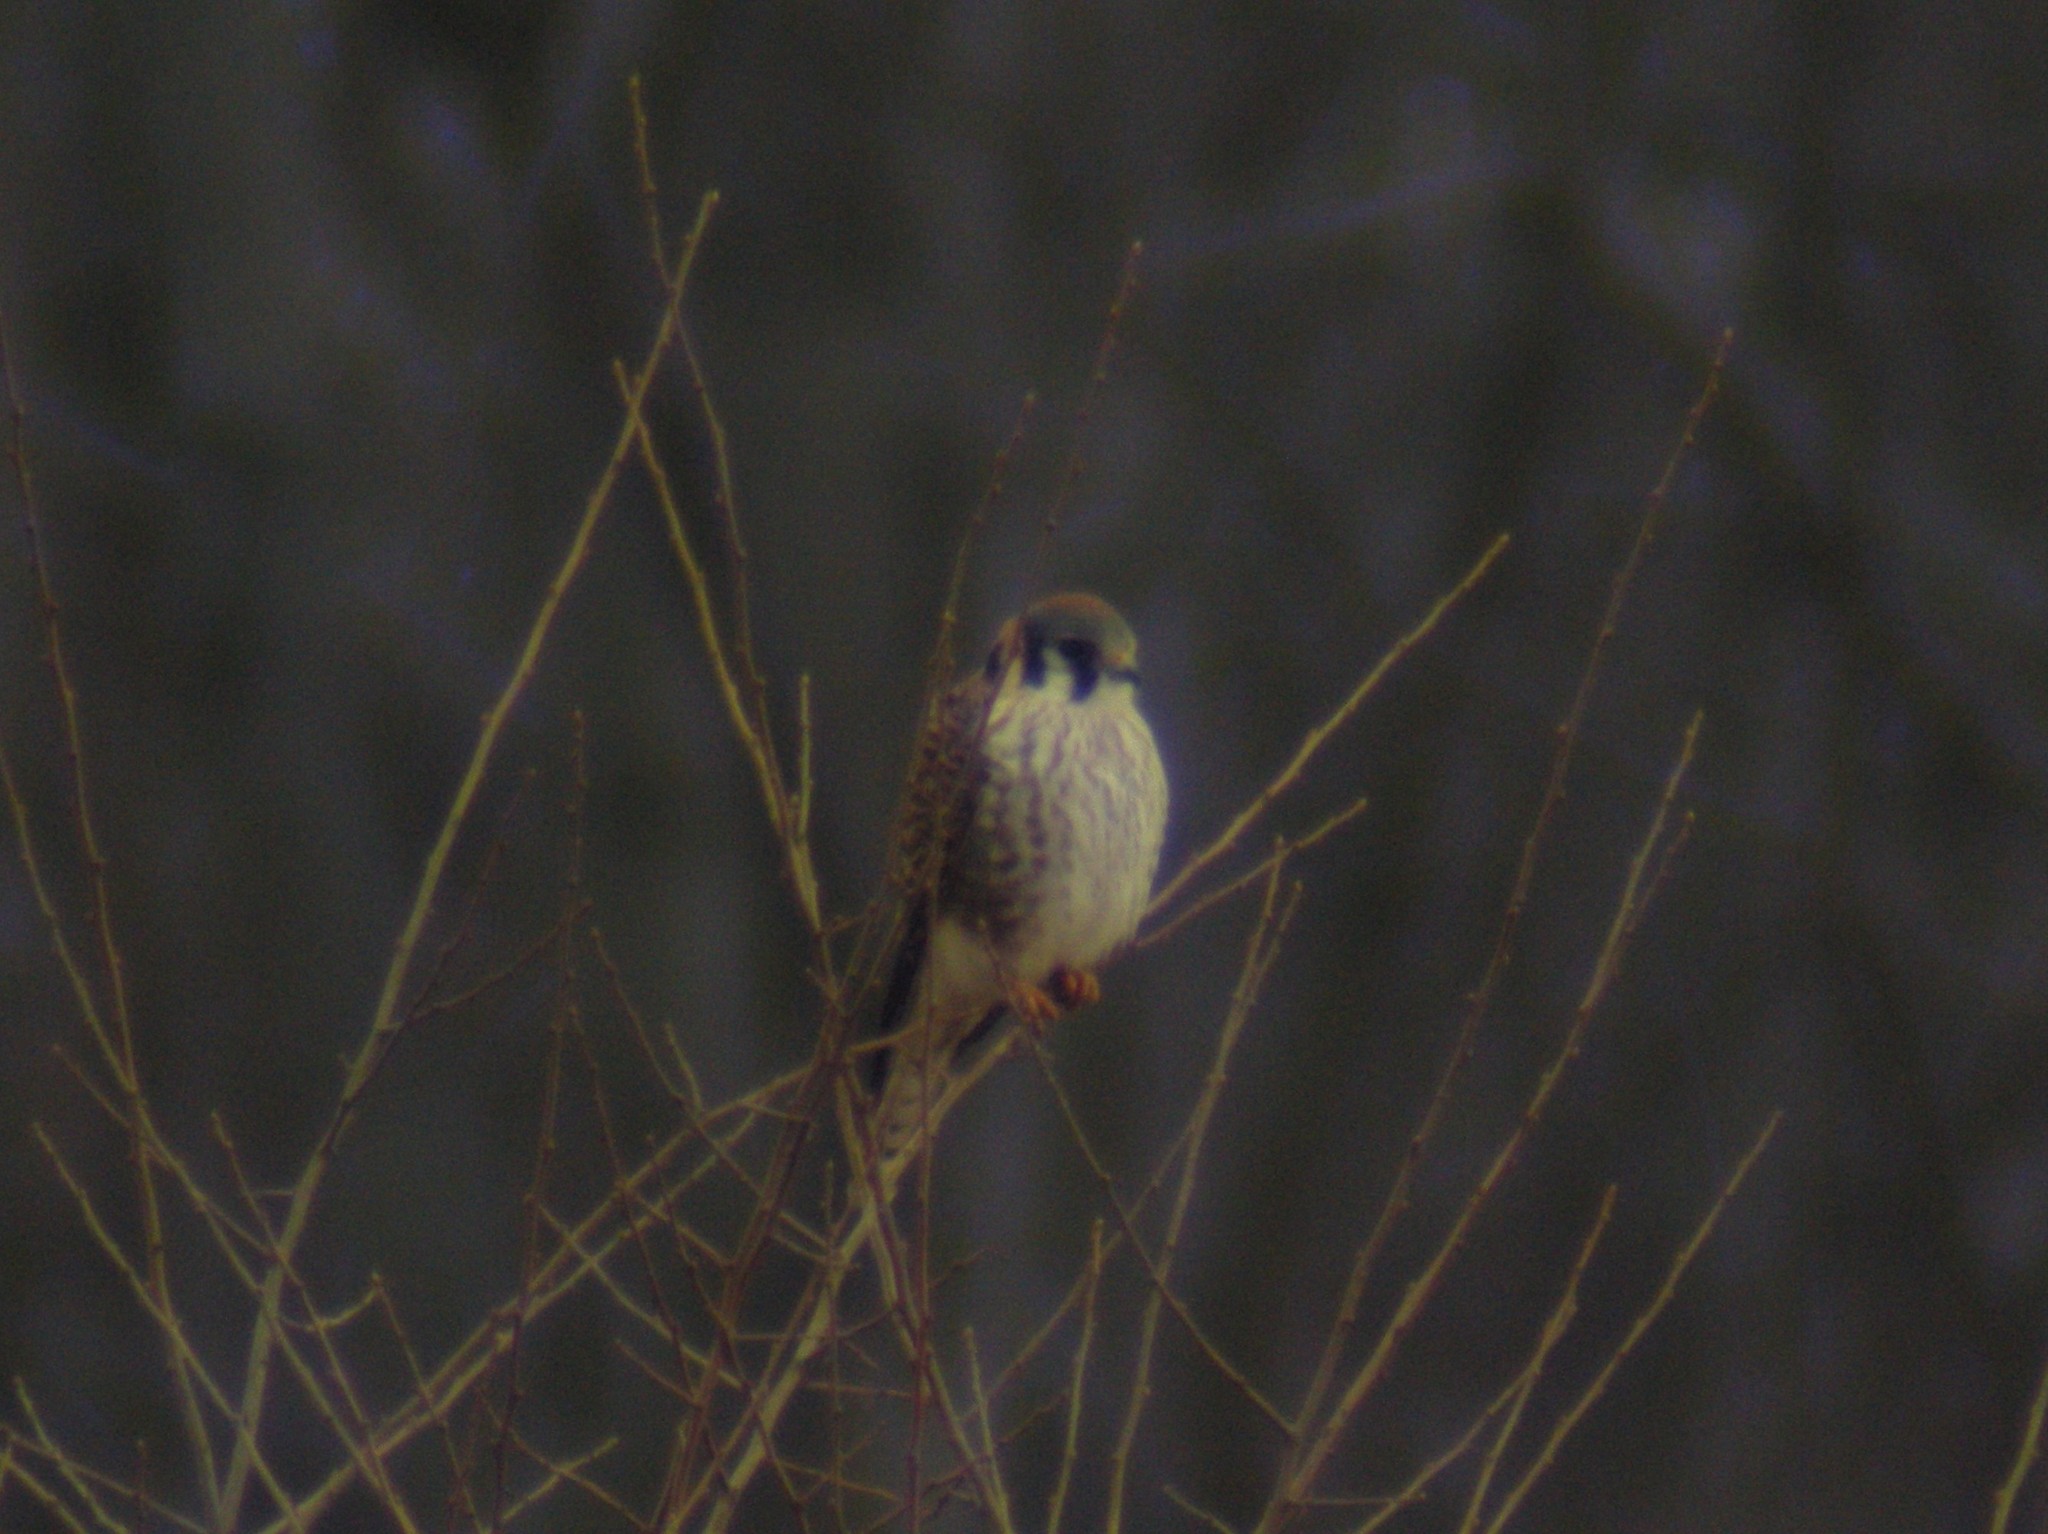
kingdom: Animalia
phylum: Chordata
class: Aves
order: Falconiformes
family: Falconidae
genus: Falco
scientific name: Falco sparverius
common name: American kestrel
